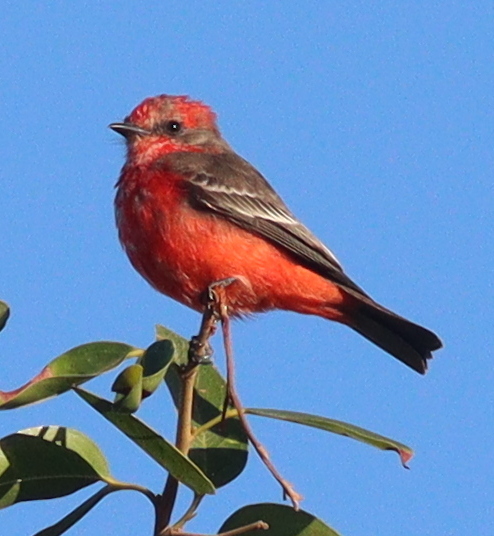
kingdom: Animalia
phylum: Chordata
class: Aves
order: Passeriformes
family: Tyrannidae
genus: Pyrocephalus
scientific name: Pyrocephalus rubinus
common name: Vermilion flycatcher
